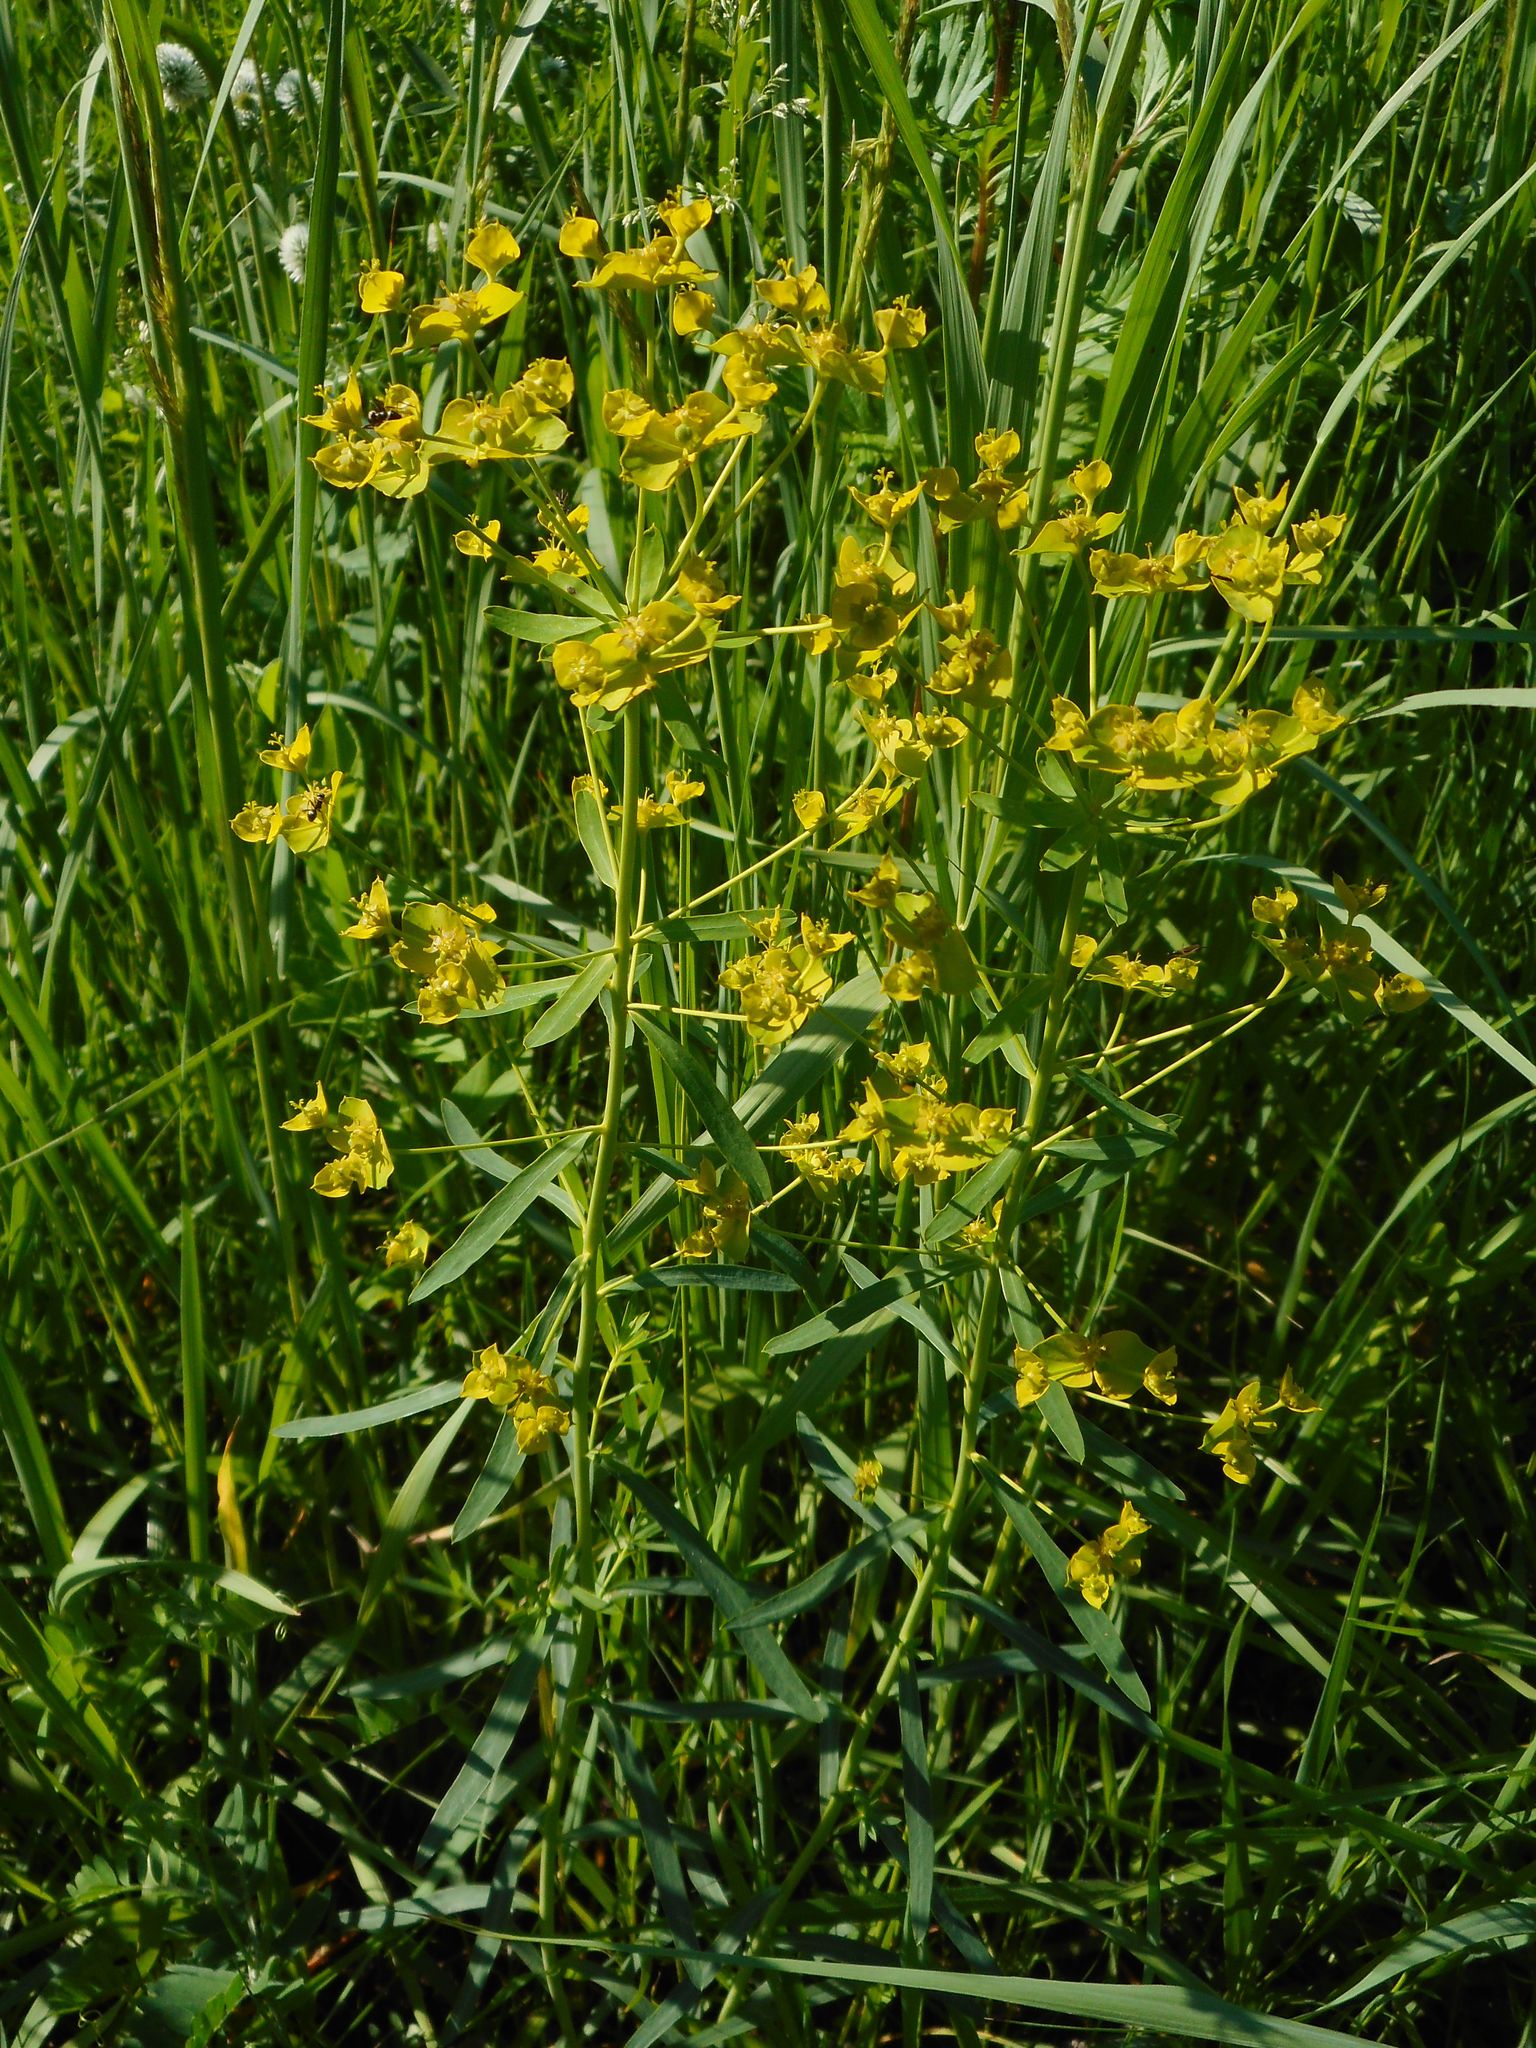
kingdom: Plantae
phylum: Tracheophyta
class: Magnoliopsida
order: Malpighiales
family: Euphorbiaceae
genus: Euphorbia
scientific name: Euphorbia virgata
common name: Leafy spurge
